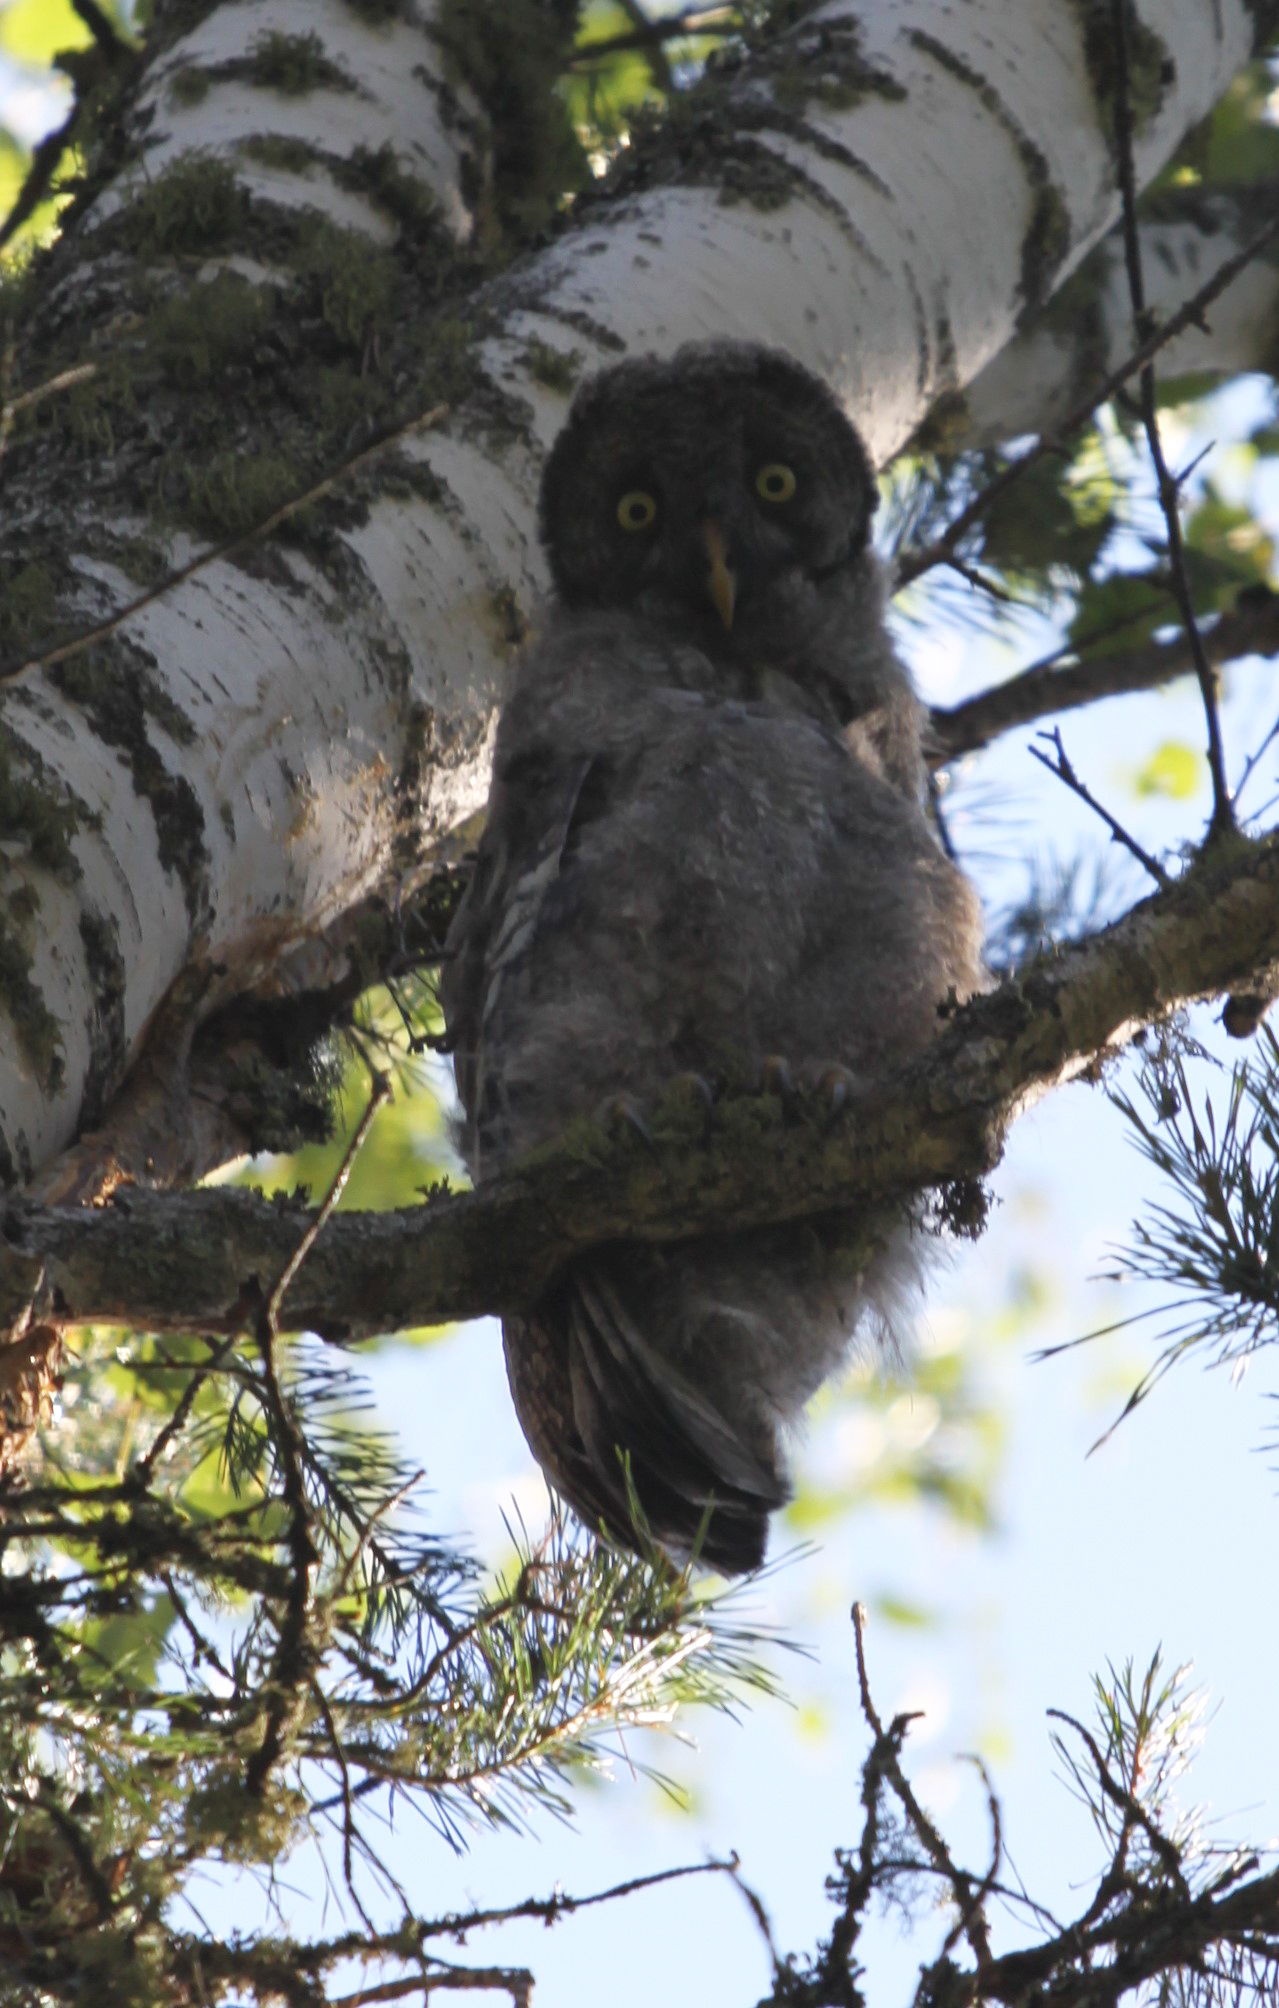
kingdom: Animalia
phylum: Chordata
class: Aves
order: Strigiformes
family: Strigidae
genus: Strix
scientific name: Strix nebulosa
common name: Great grey owl
